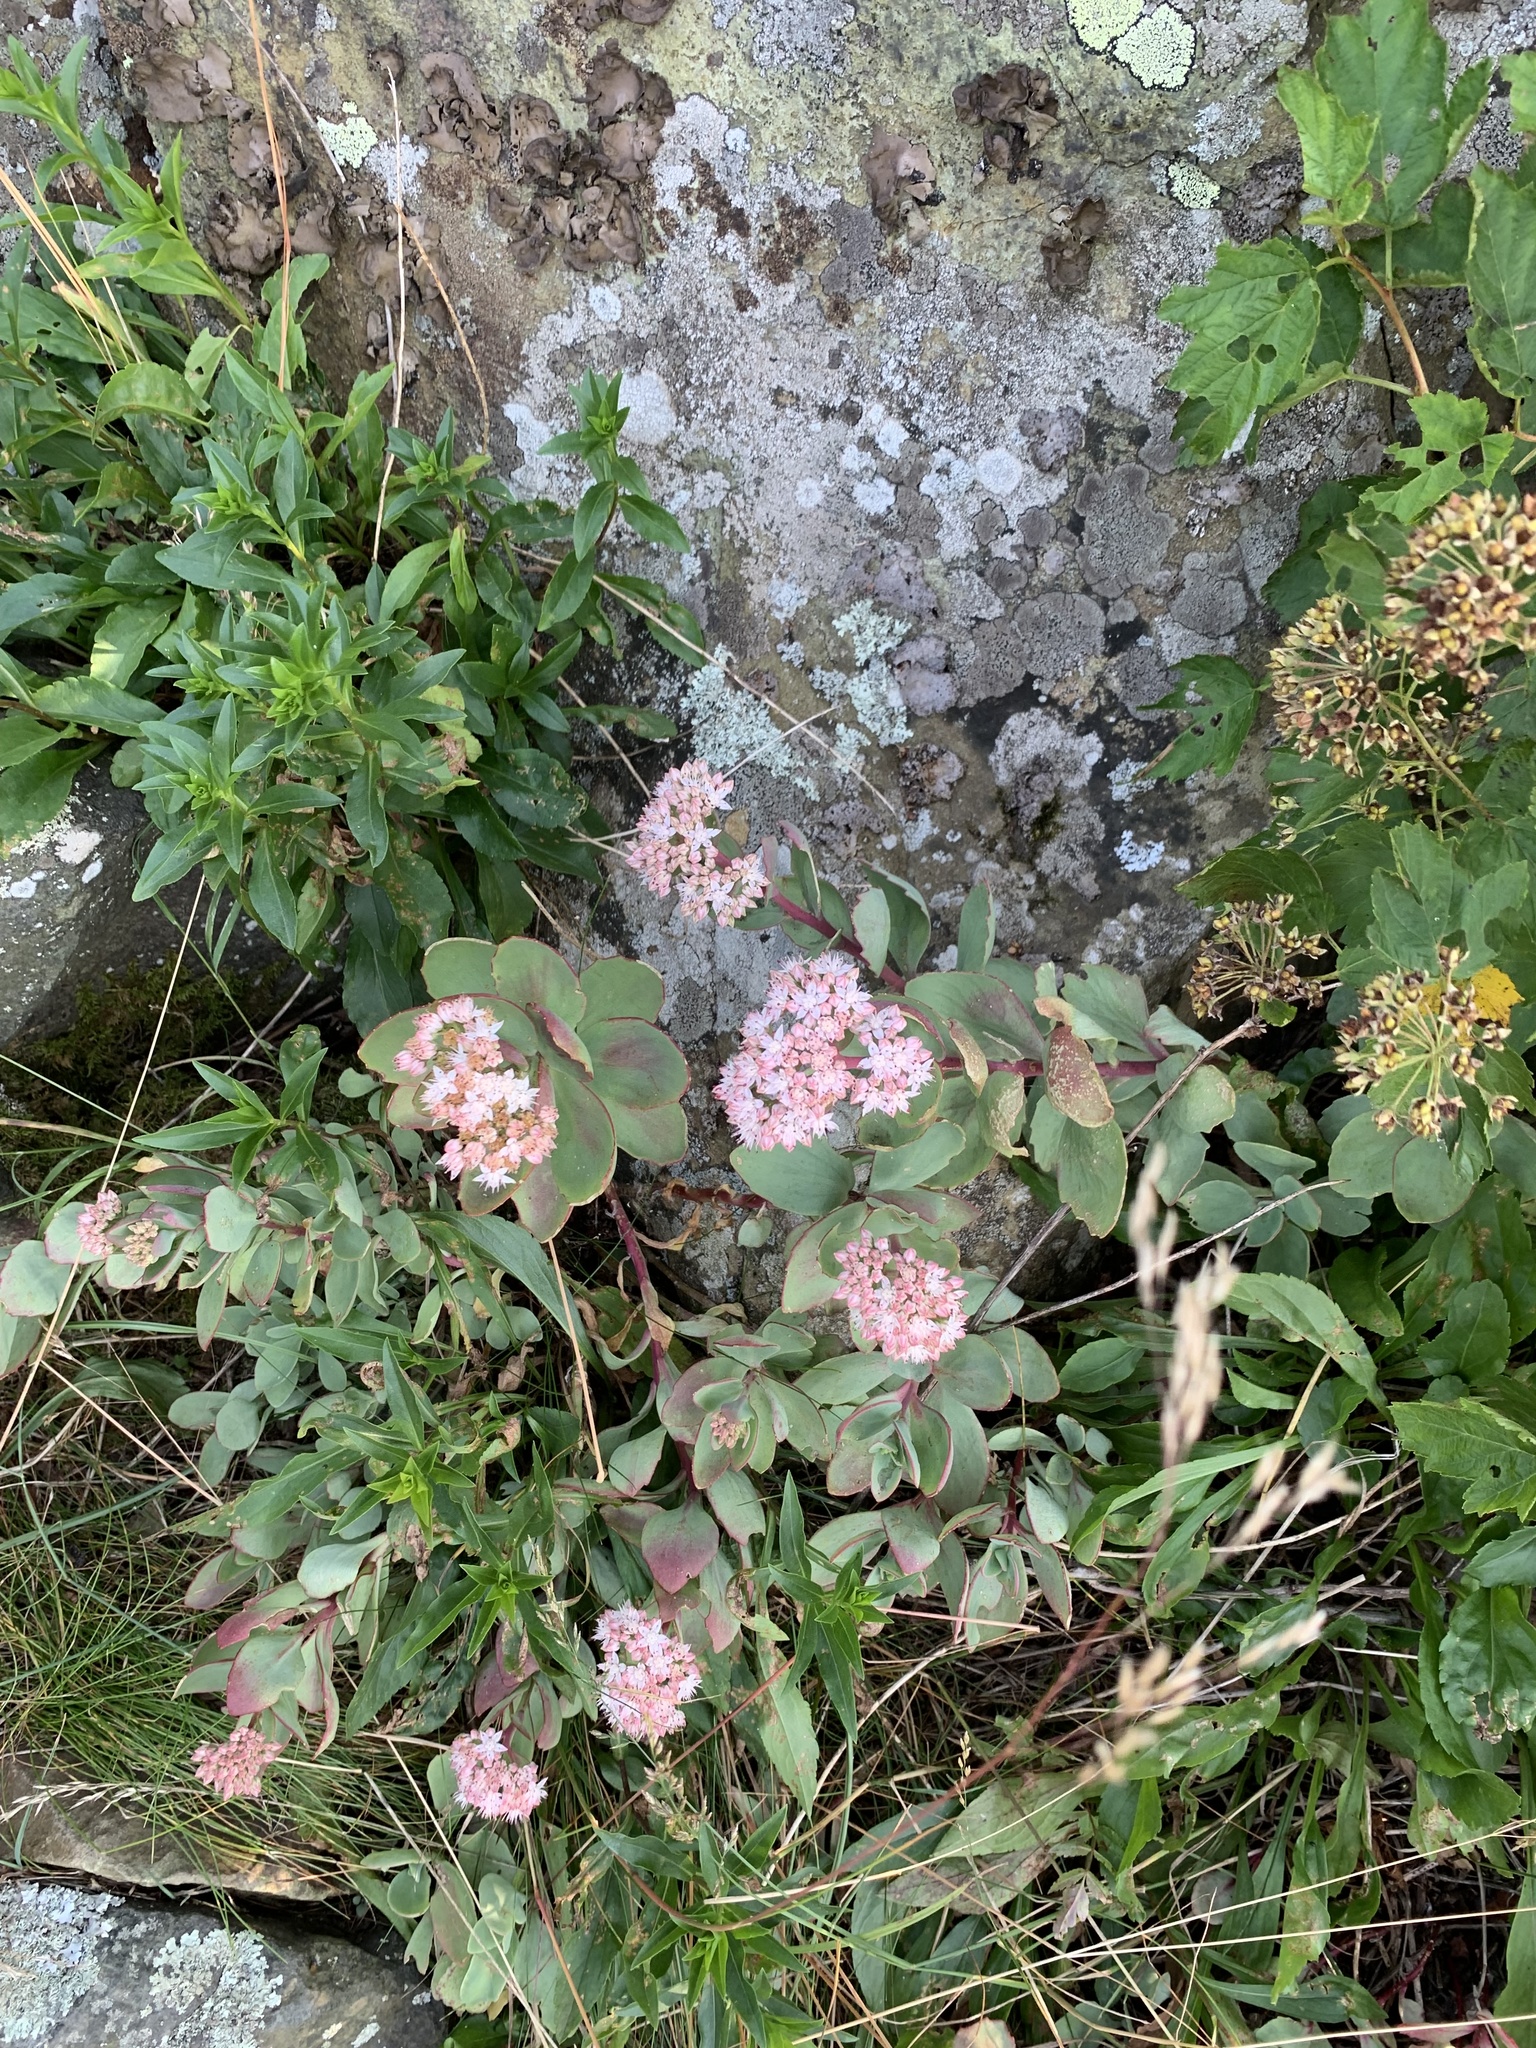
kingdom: Plantae
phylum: Tracheophyta
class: Magnoliopsida
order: Saxifragales
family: Crassulaceae
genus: Hylotelephium
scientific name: Hylotelephium telephioides
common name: Allegheny stonecrop
